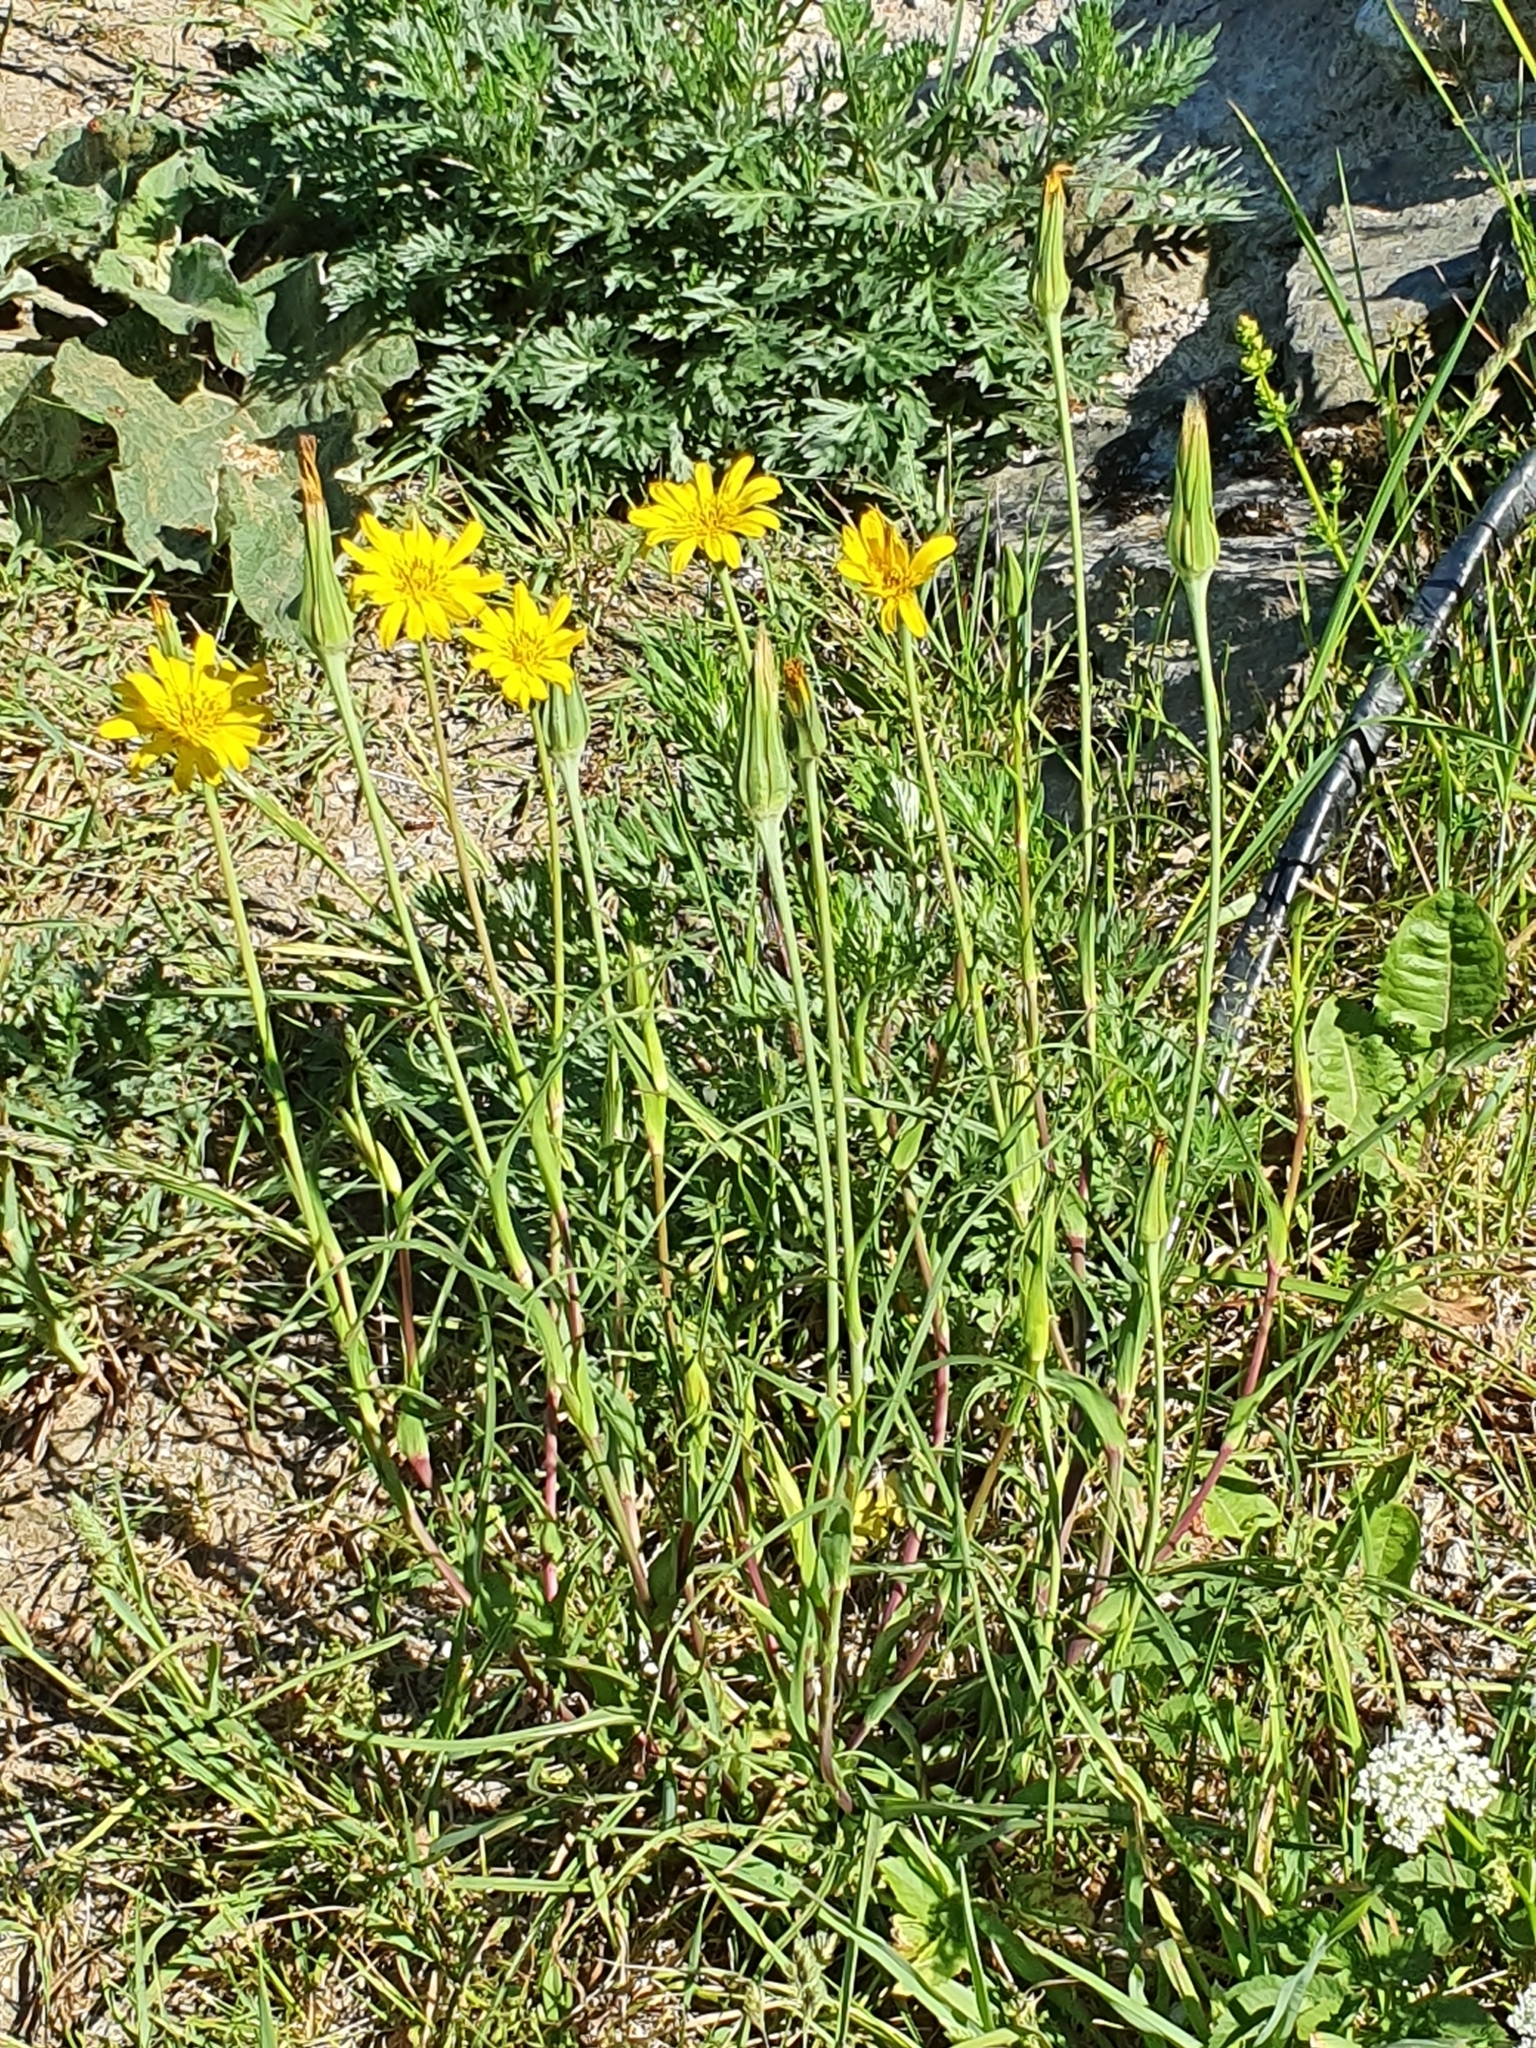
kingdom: Plantae
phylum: Tracheophyta
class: Magnoliopsida
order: Asterales
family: Asteraceae
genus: Tragopogon
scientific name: Tragopogon pratensis
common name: Goat's-beard
